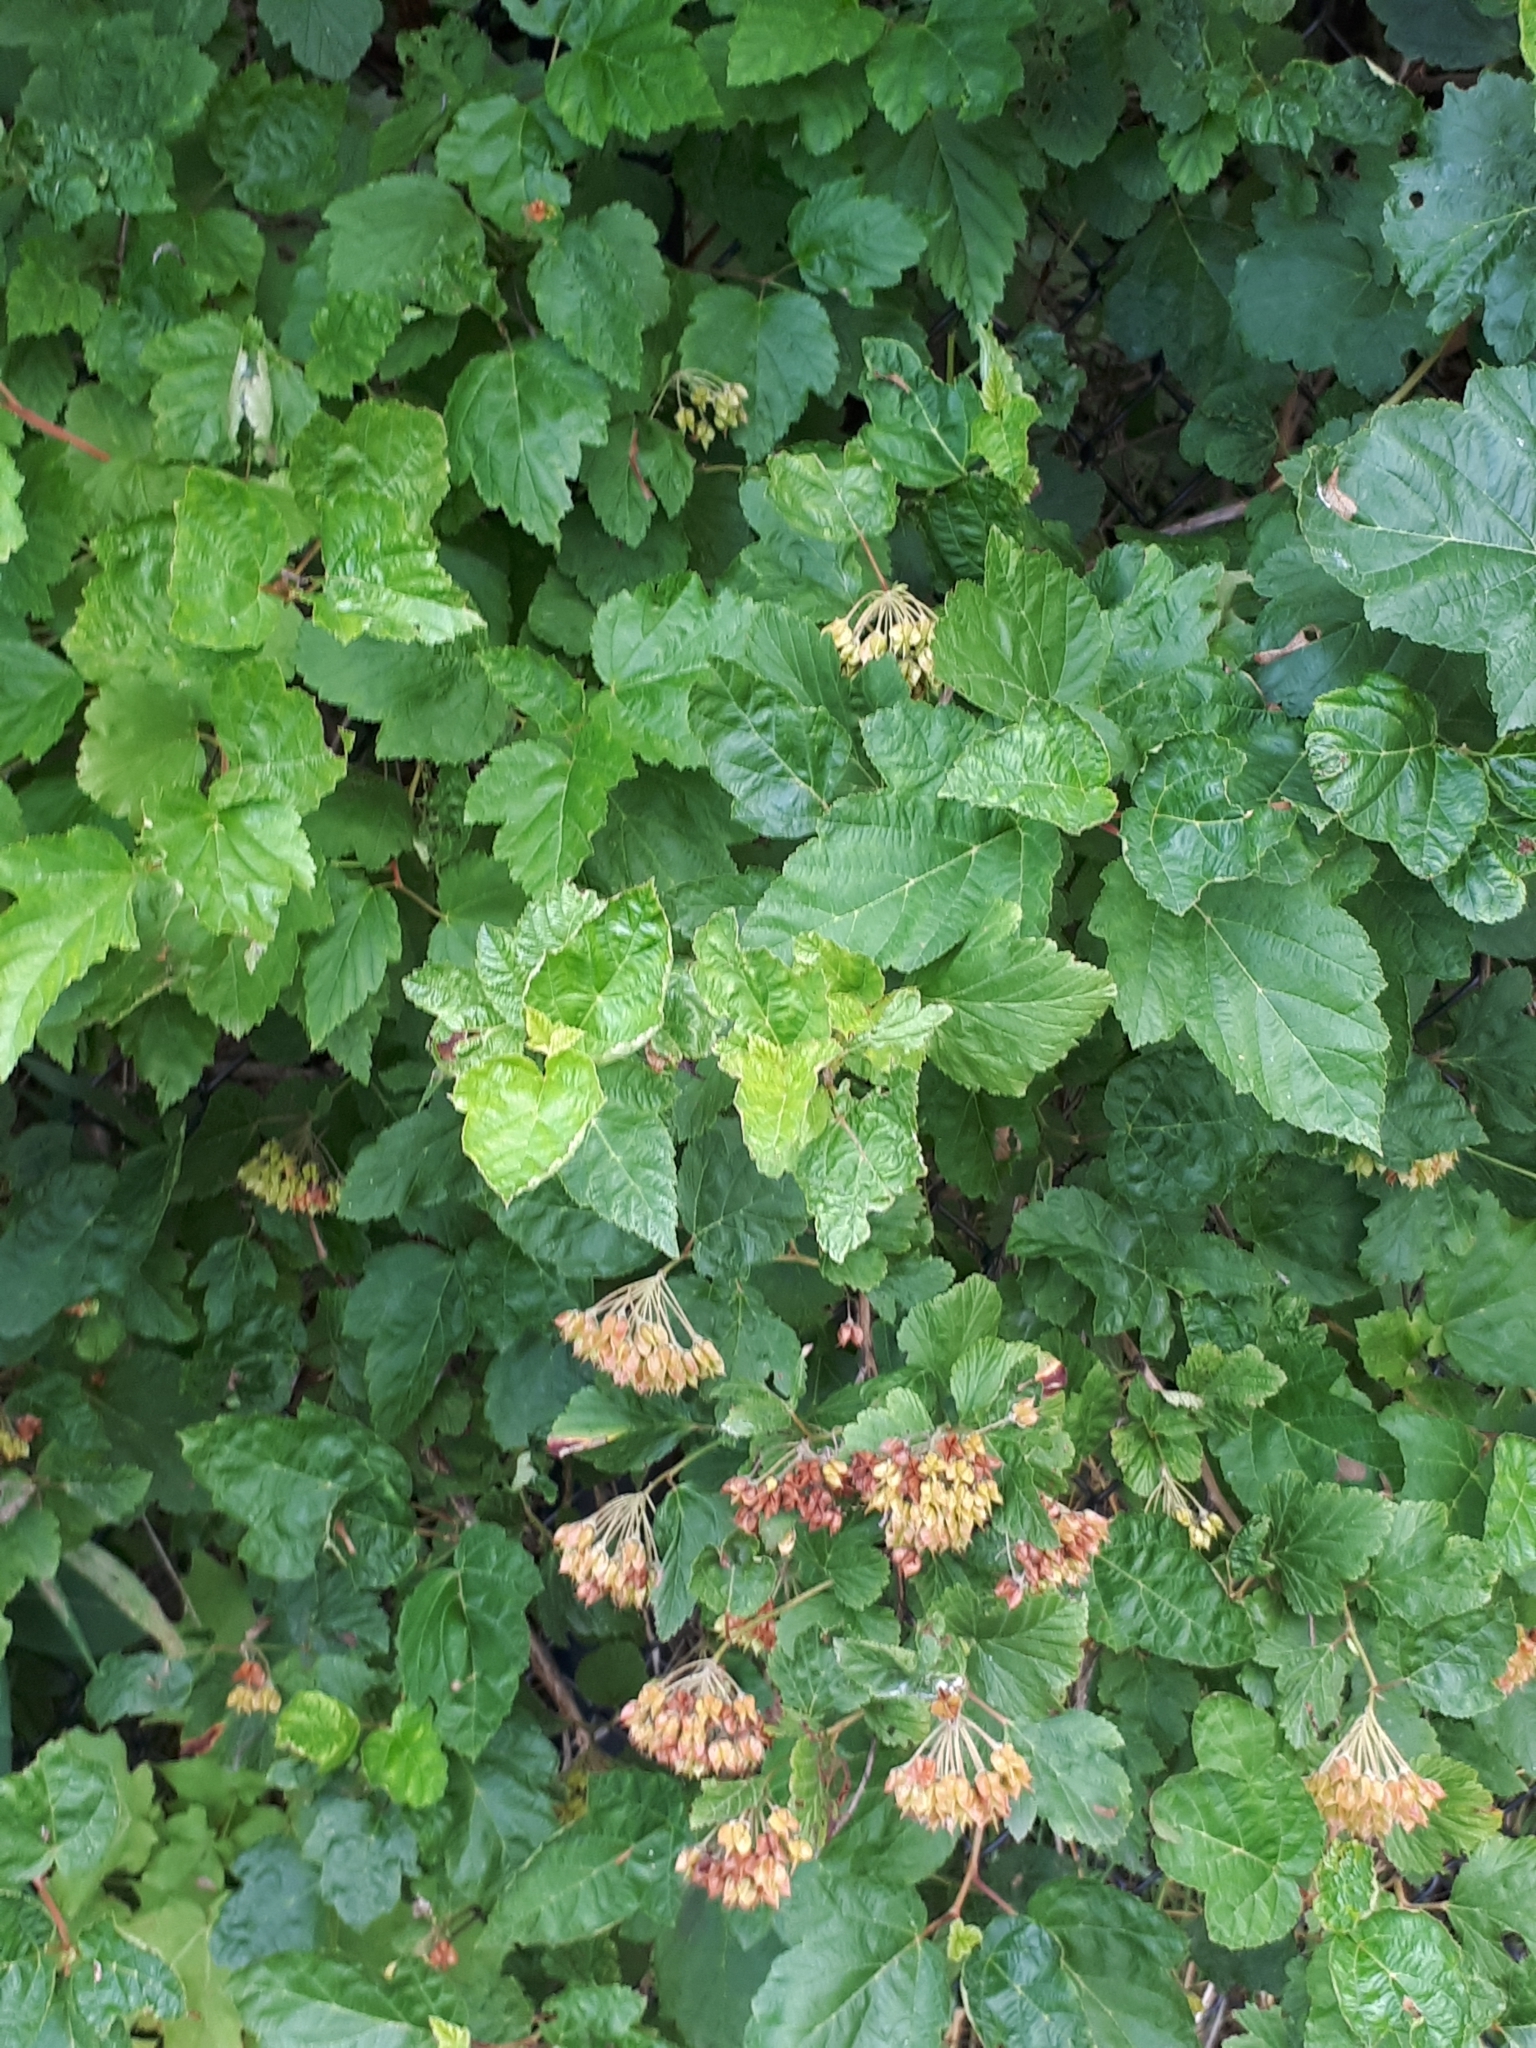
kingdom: Plantae
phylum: Tracheophyta
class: Magnoliopsida
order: Rosales
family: Rosaceae
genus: Physocarpus
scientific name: Physocarpus opulifolius
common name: Ninebark
